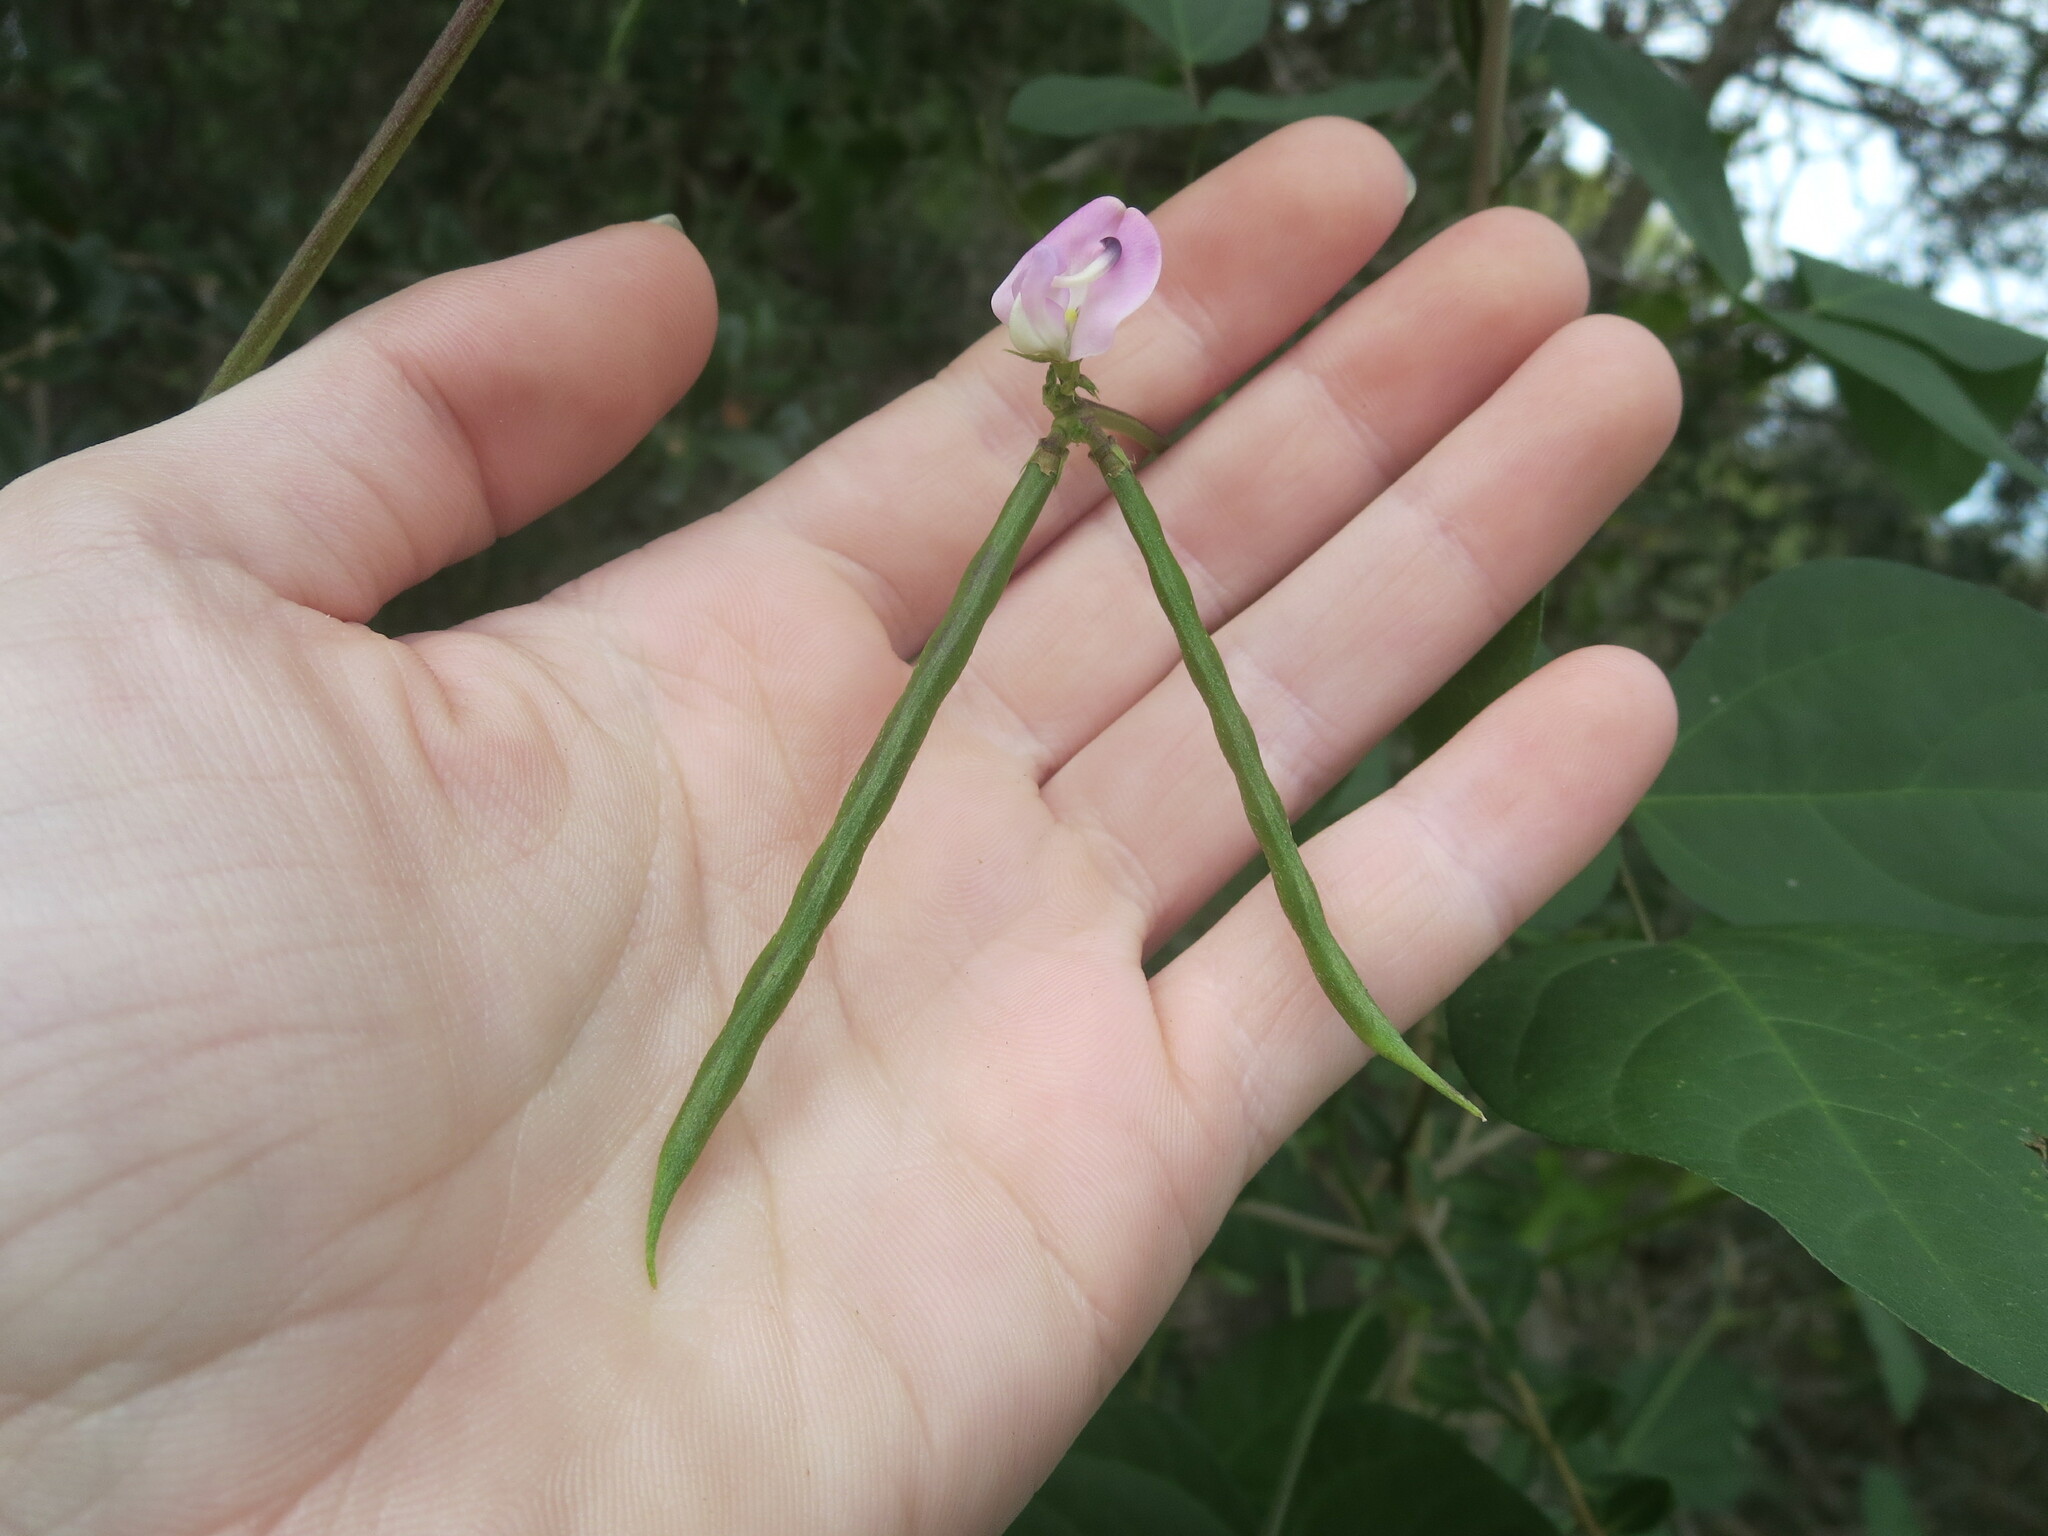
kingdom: Plantae
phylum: Tracheophyta
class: Magnoliopsida
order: Fabales
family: Fabaceae
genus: Strophostyles
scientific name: Strophostyles helvola
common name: Trailing wild bean
